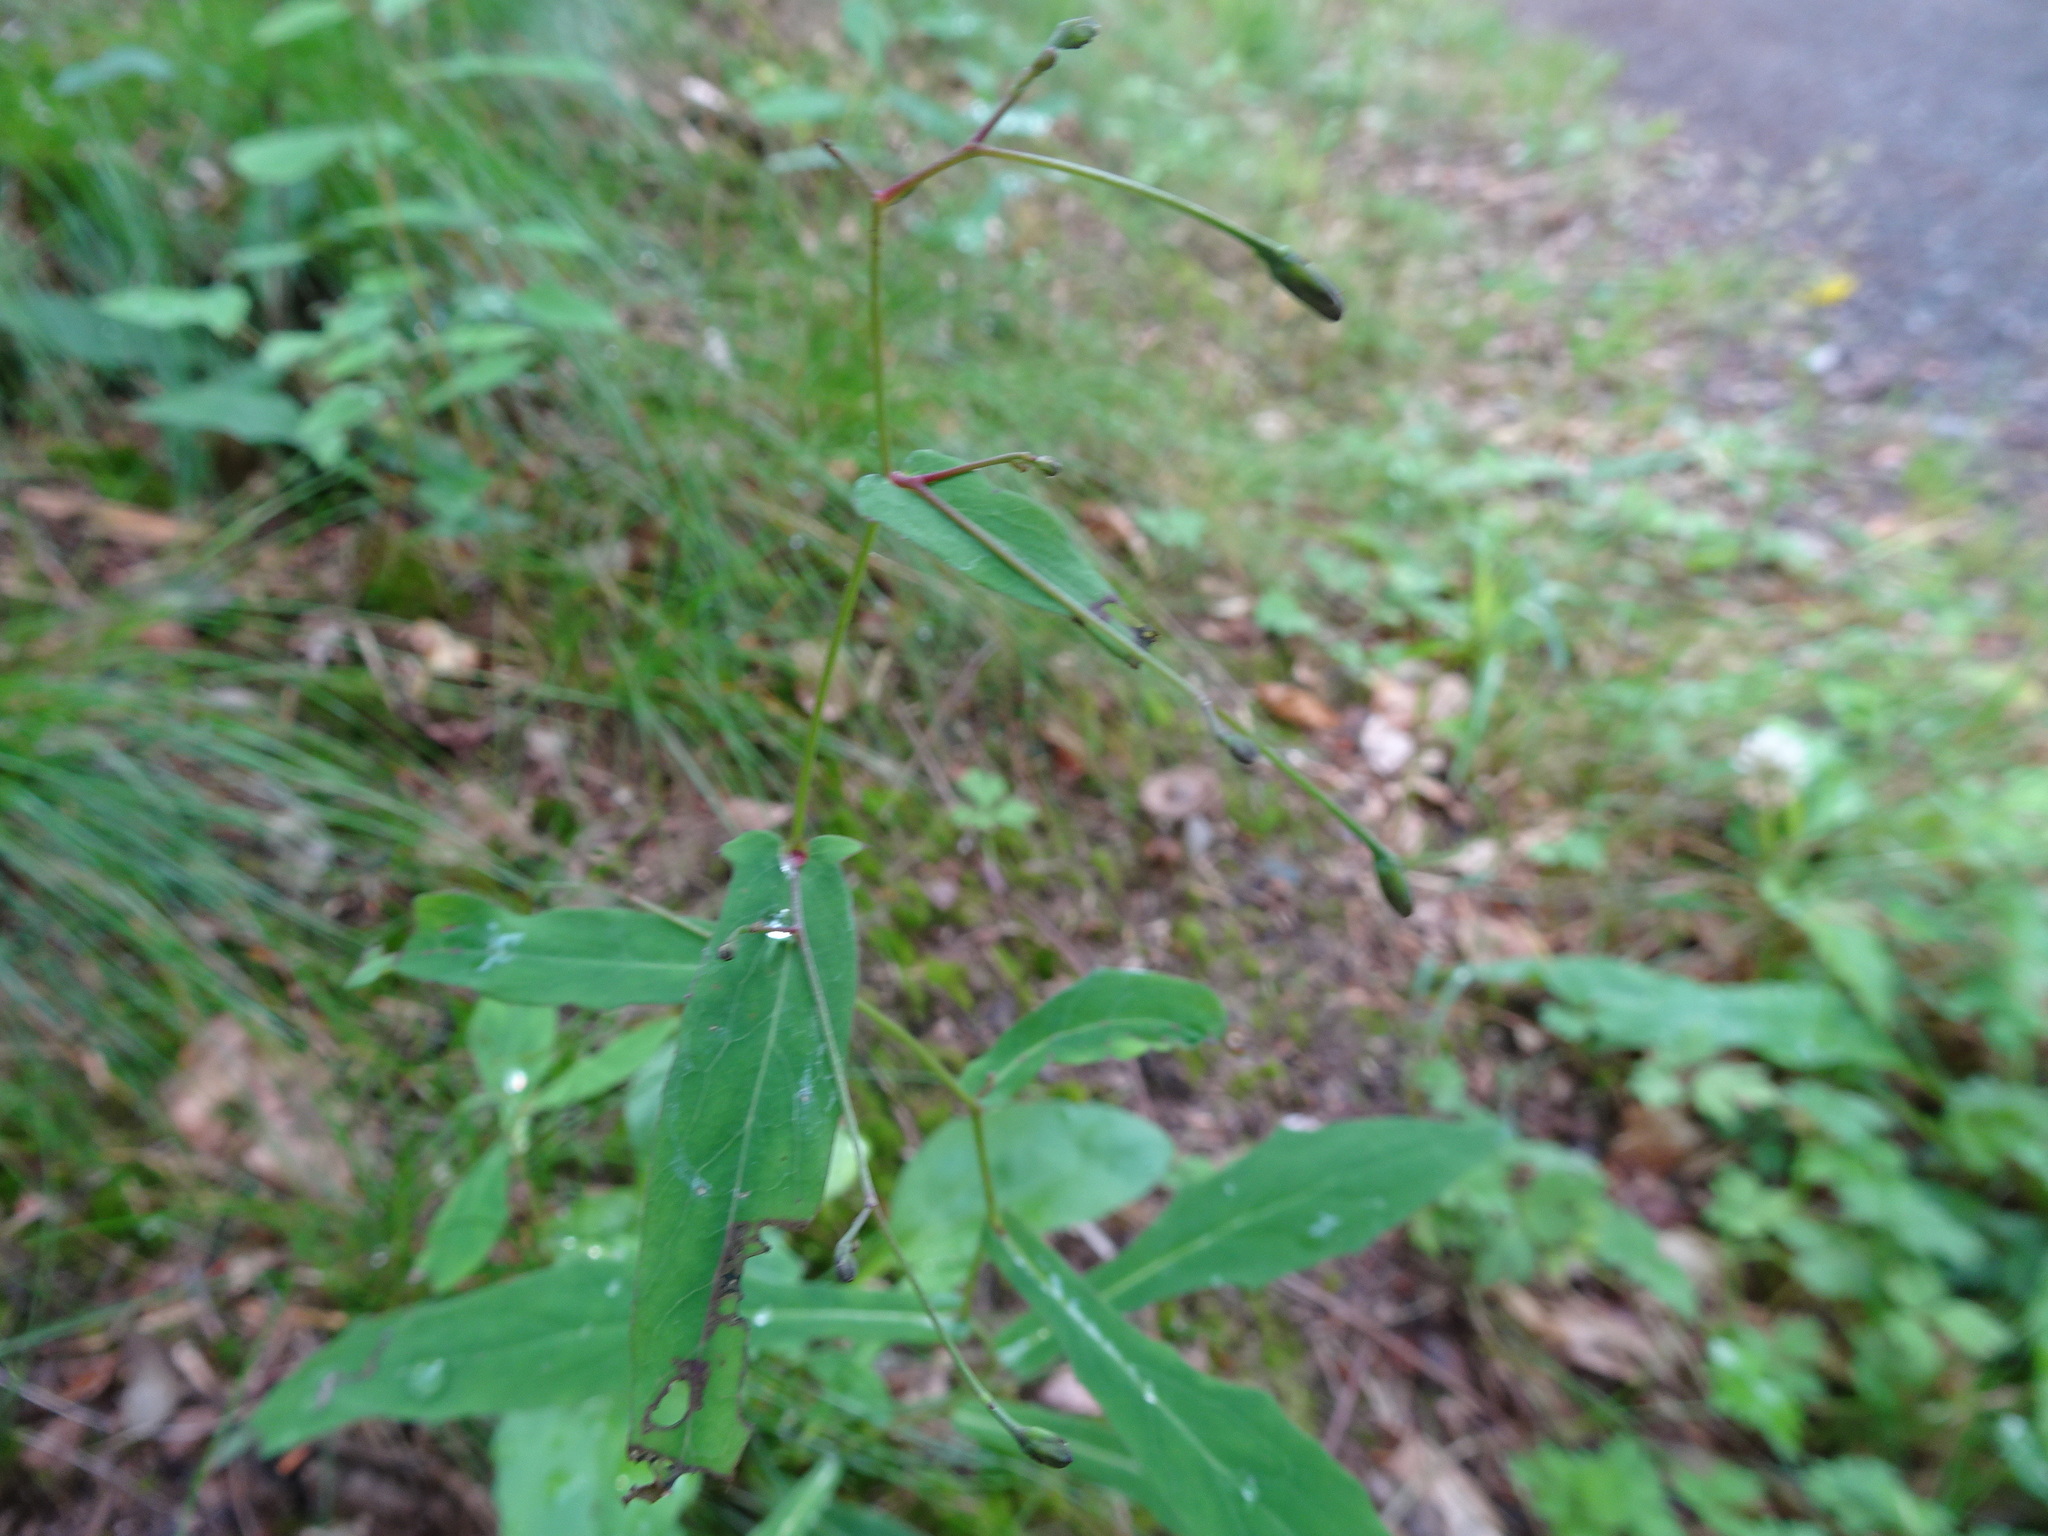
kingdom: Plantae
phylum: Tracheophyta
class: Magnoliopsida
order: Asterales
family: Asteraceae
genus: Prenanthes
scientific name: Prenanthes purpurea
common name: Purple lettuce
